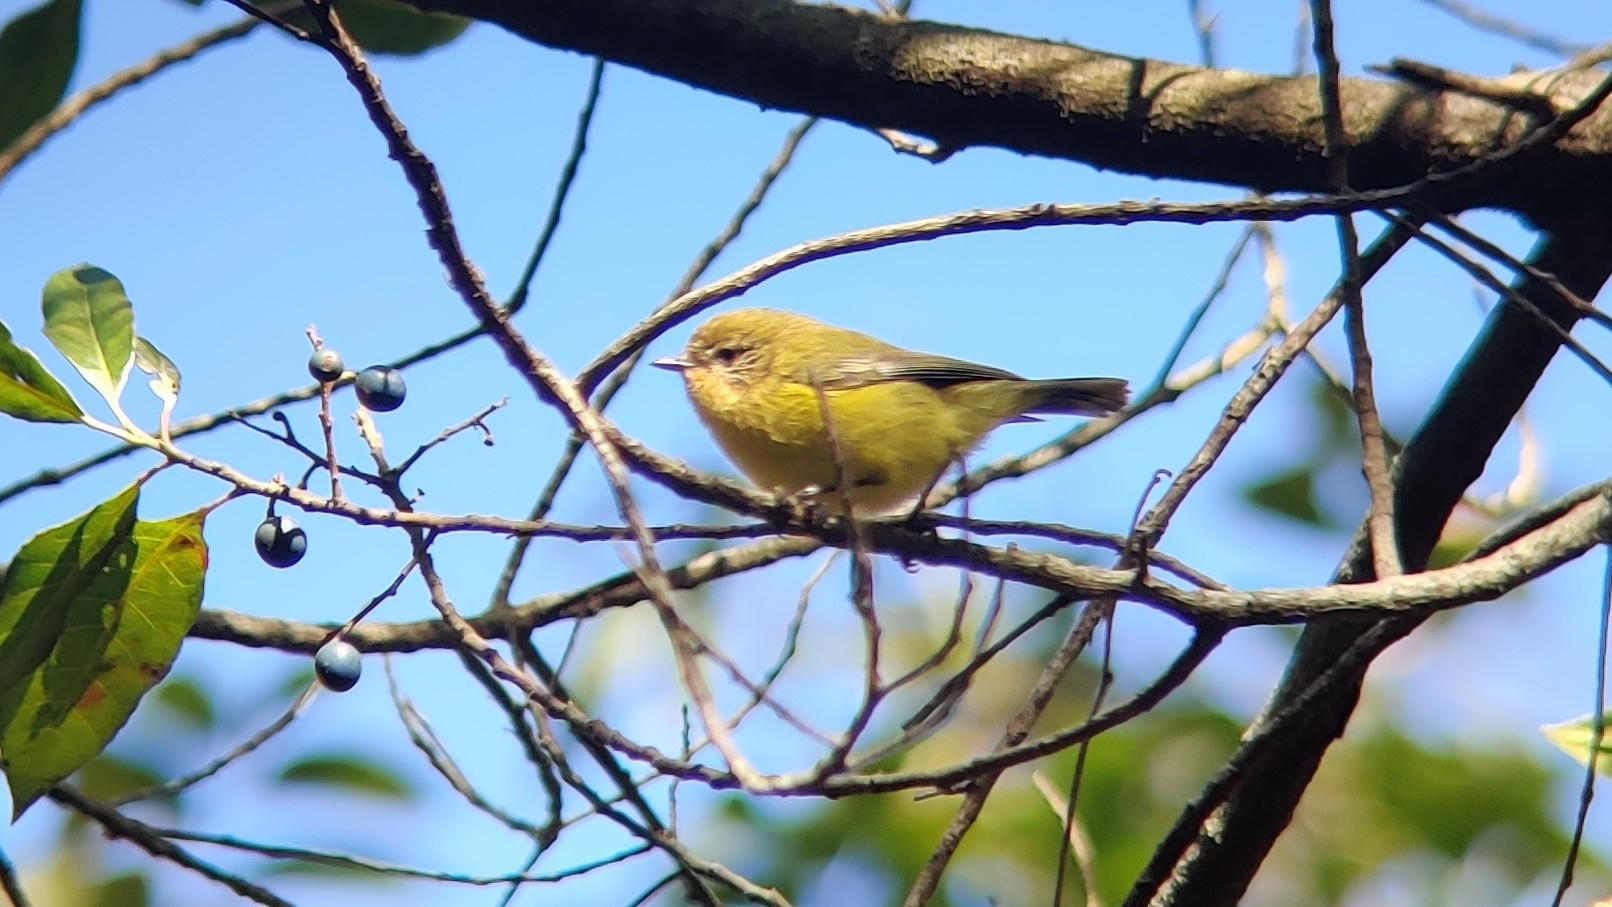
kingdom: Animalia
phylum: Chordata
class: Aves
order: Passeriformes
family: Acanthizidae
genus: Acanthiza
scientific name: Acanthiza nana
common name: Yellow thornbill
